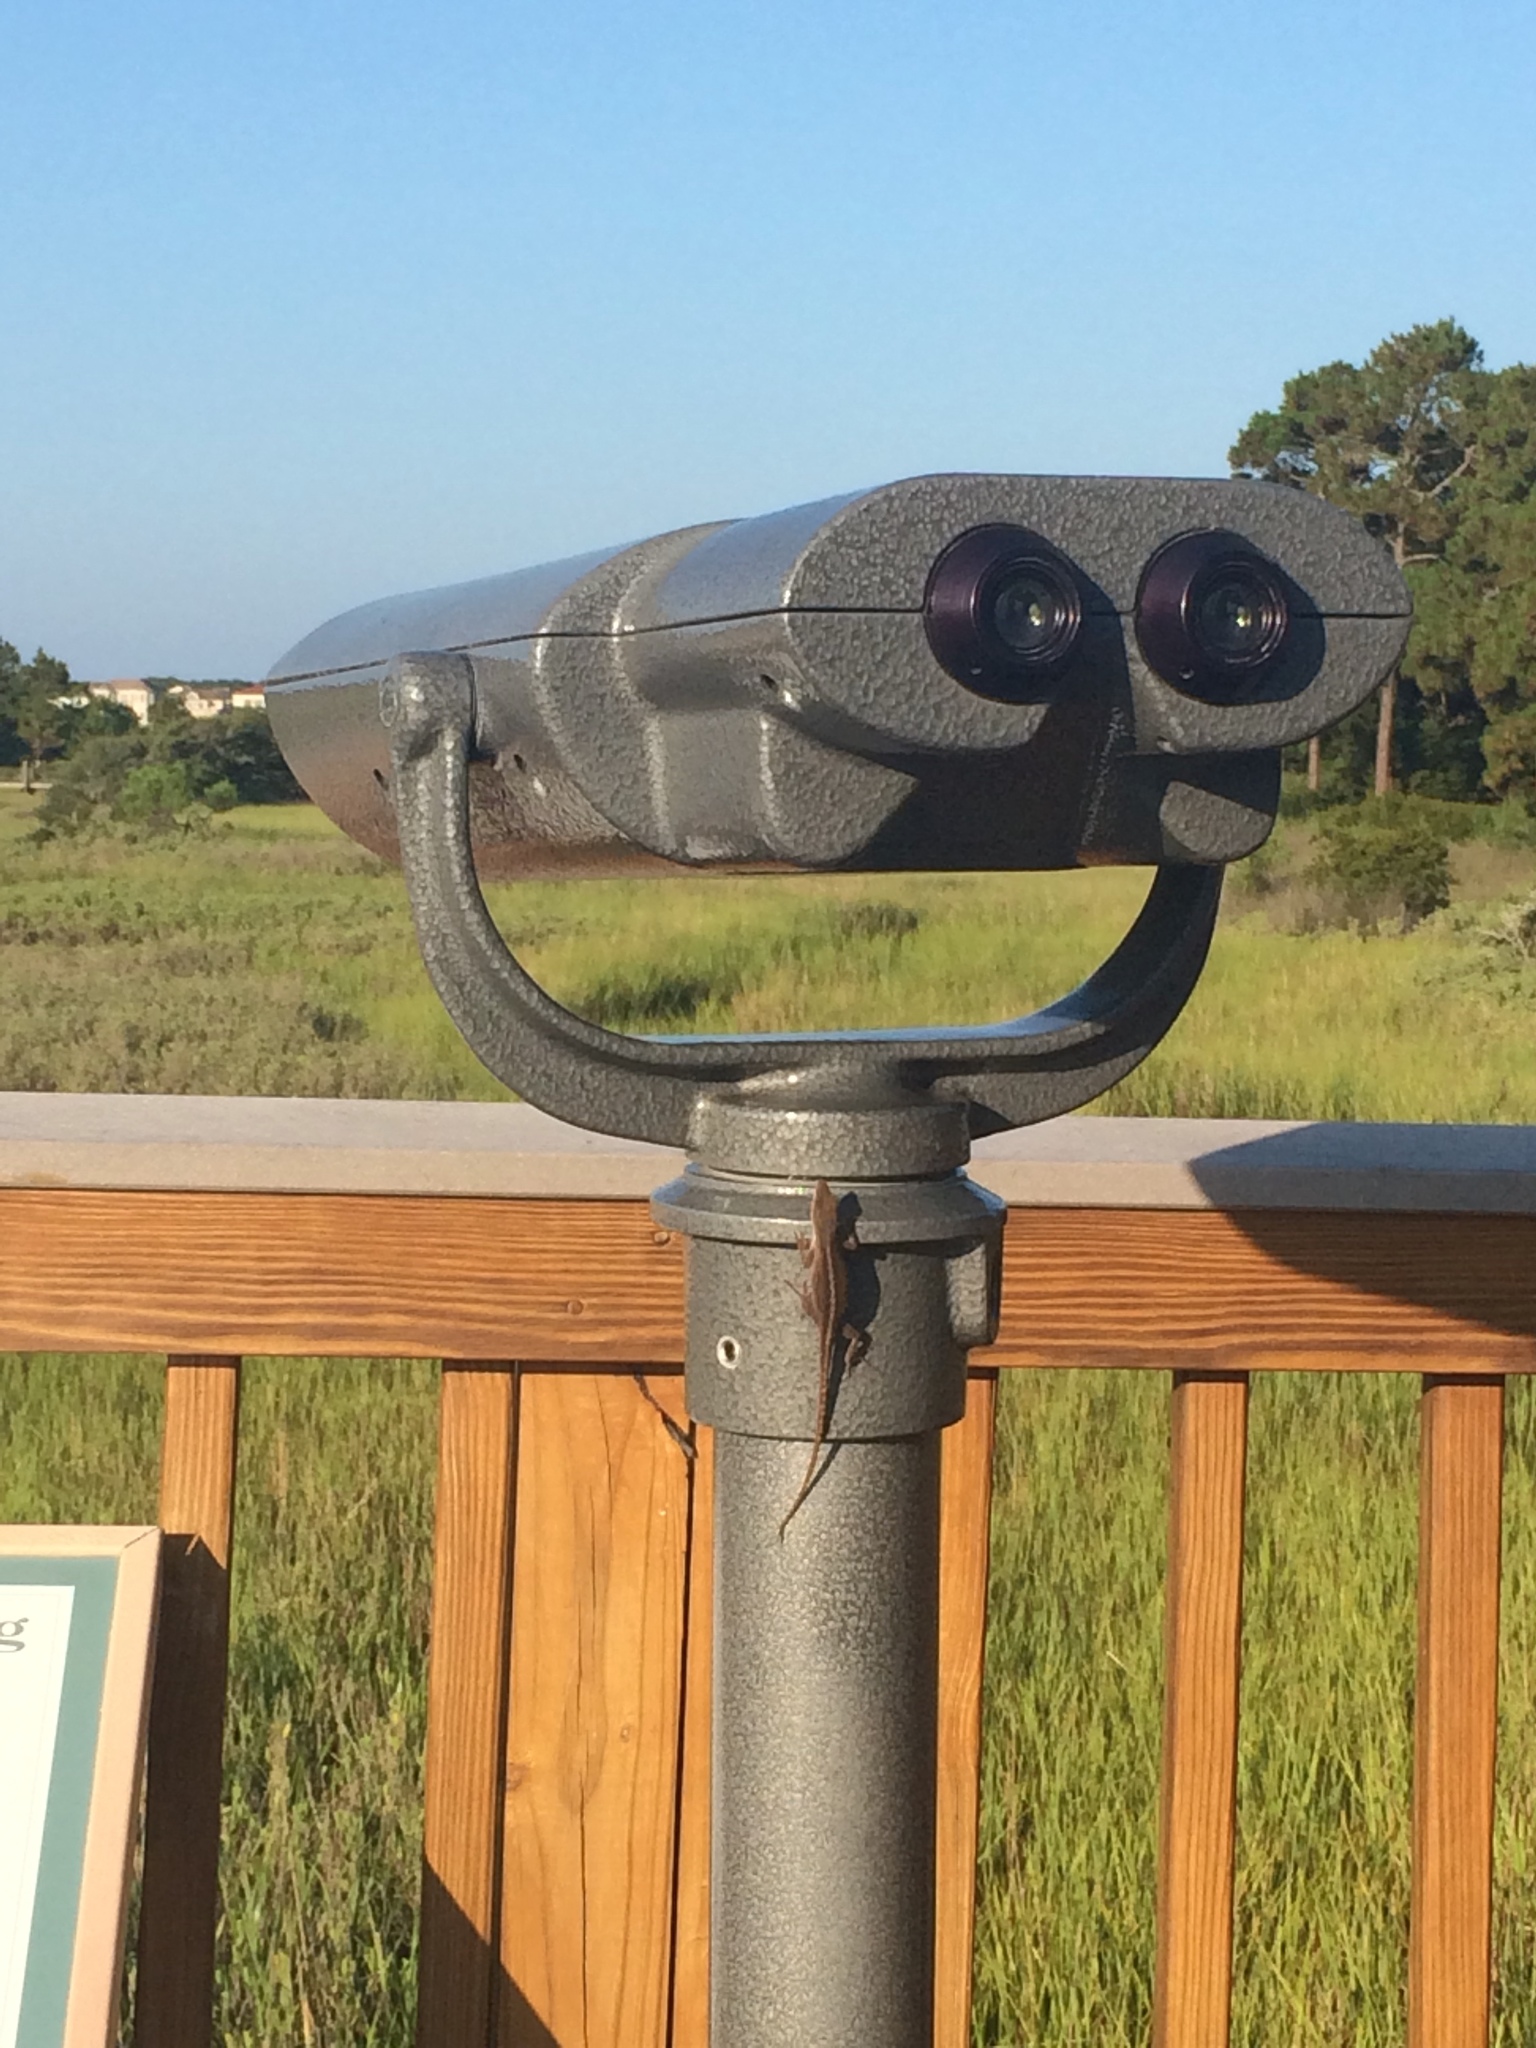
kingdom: Animalia
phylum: Chordata
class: Squamata
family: Dactyloidae
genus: Anolis
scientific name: Anolis carolinensis
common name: Green anole
